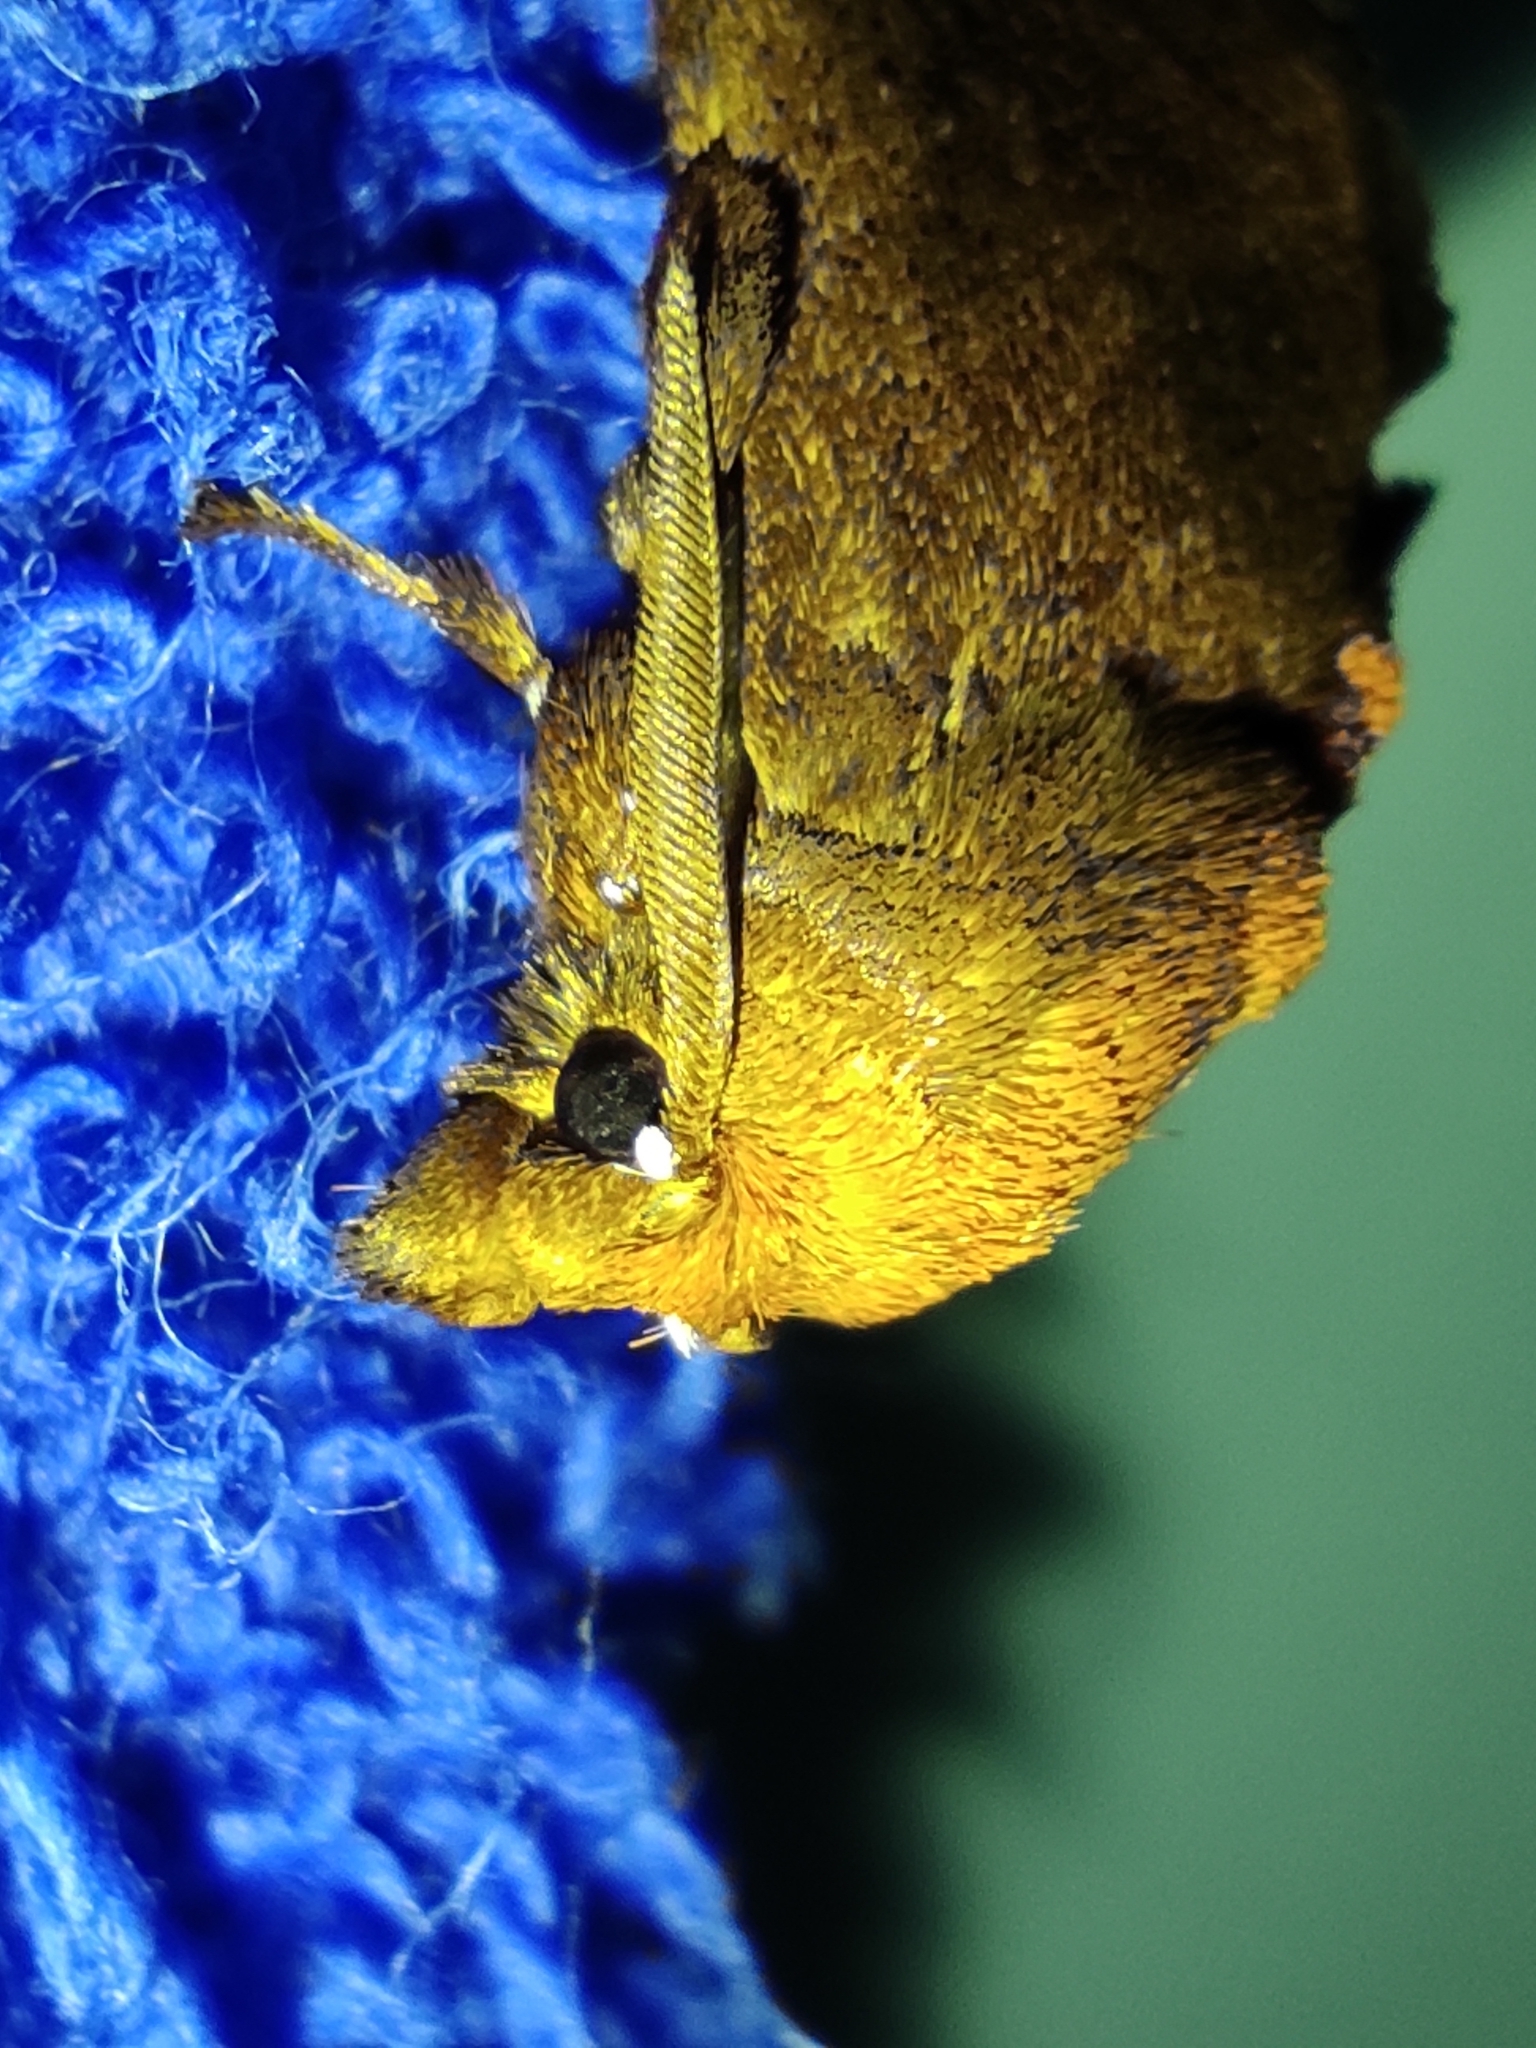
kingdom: Animalia
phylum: Arthropoda
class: Insecta
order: Lepidoptera
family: Limacodidae
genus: Natada
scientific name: Natada
